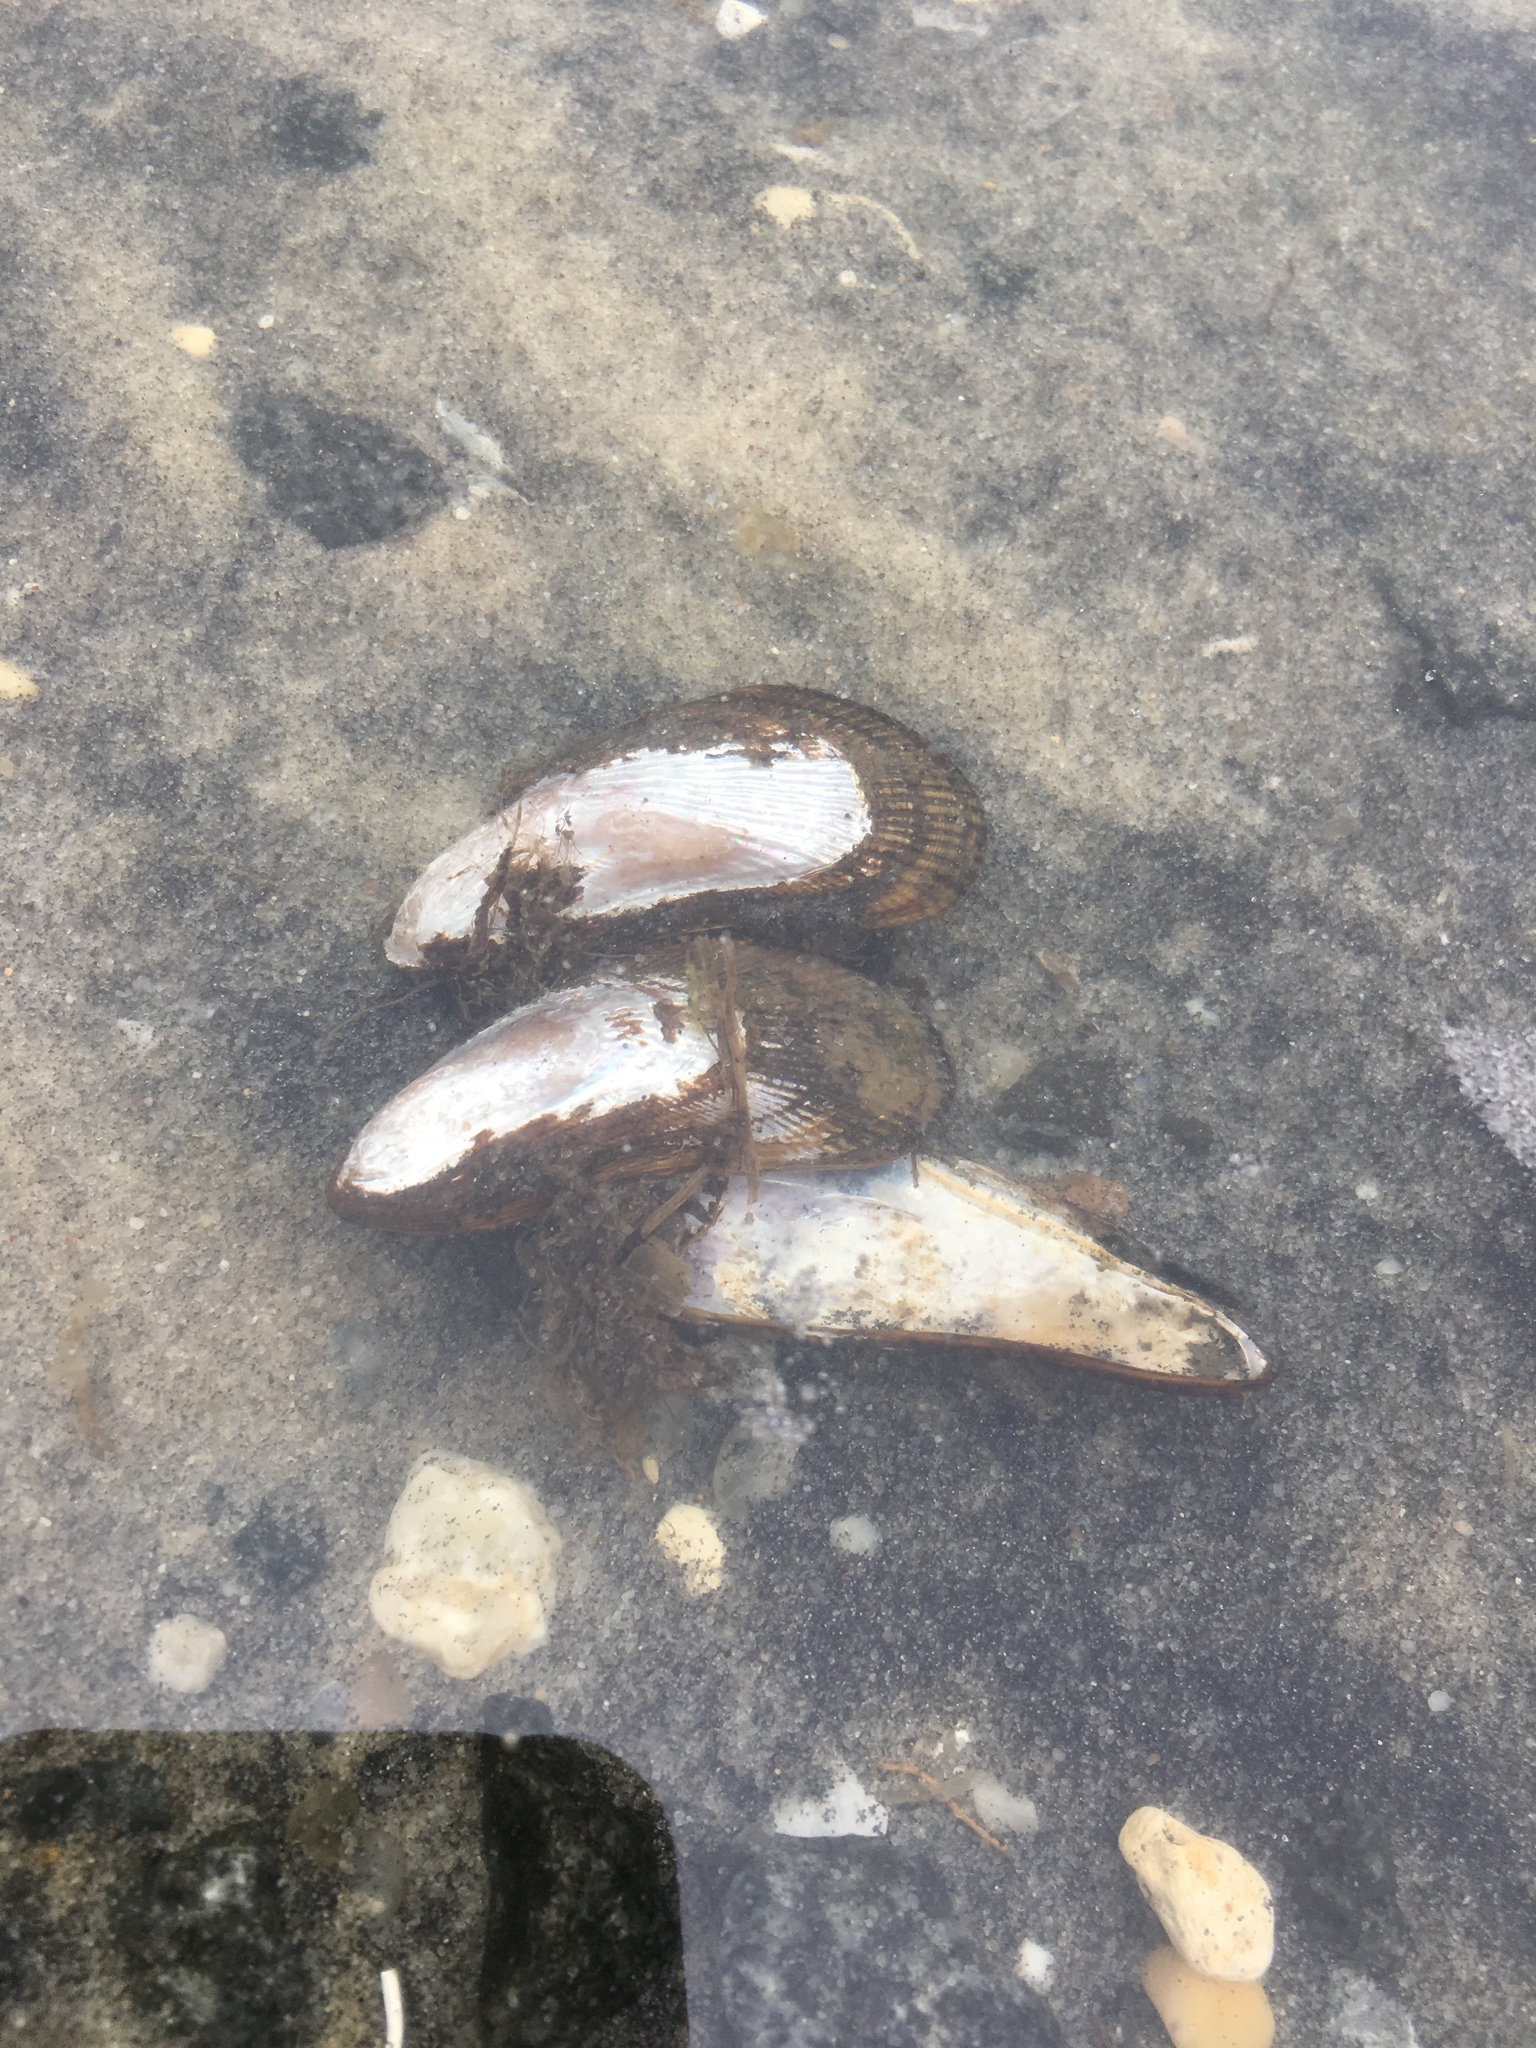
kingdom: Animalia
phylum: Mollusca
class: Bivalvia
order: Mytilida
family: Mytilidae
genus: Geukensia
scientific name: Geukensia demissa
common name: Ribbed mussel
